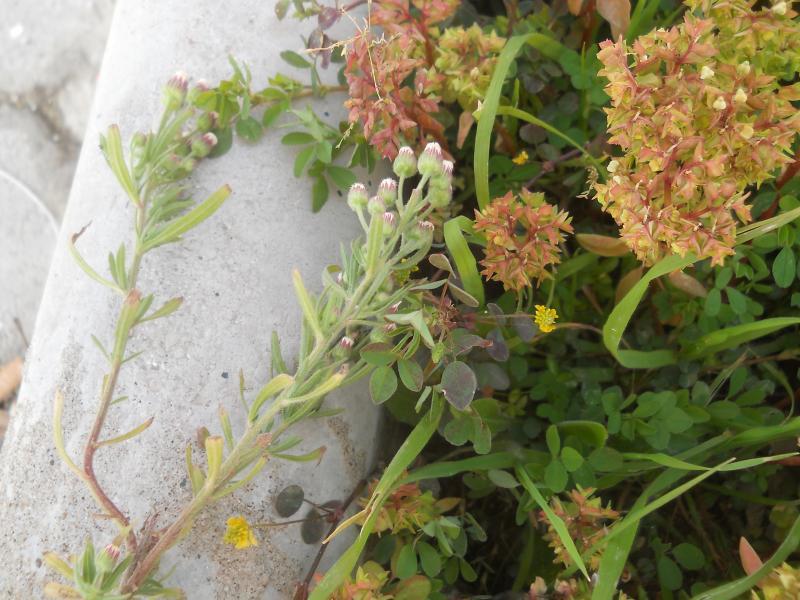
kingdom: Plantae
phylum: Tracheophyta
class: Magnoliopsida
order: Asterales
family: Asteraceae
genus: Erigeron
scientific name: Erigeron bonariensis
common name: Argentine fleabane
